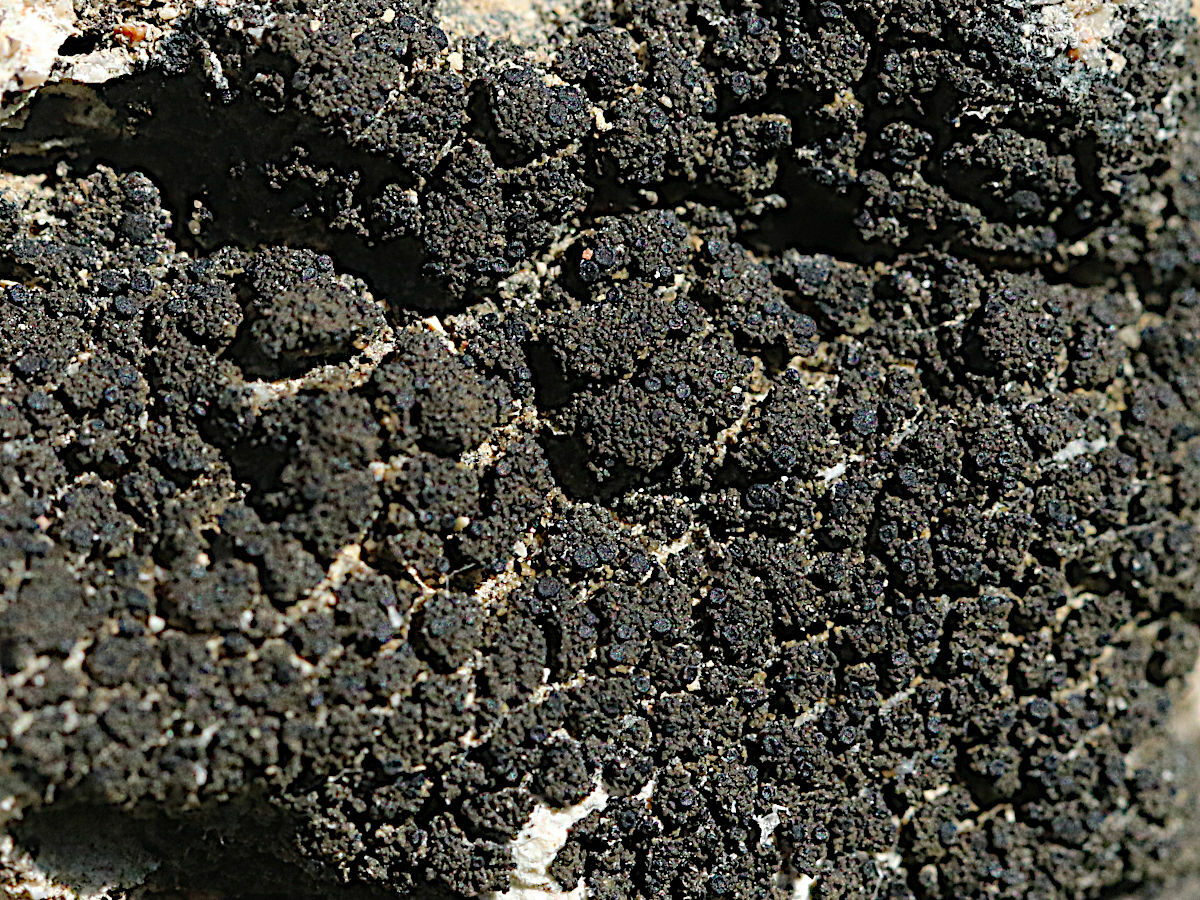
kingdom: Fungi
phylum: Ascomycota
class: Lecanoromycetes
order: Peltigerales
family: Placynthiaceae
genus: Placynthium
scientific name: Placynthium nigrum
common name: Blackthread lichen
